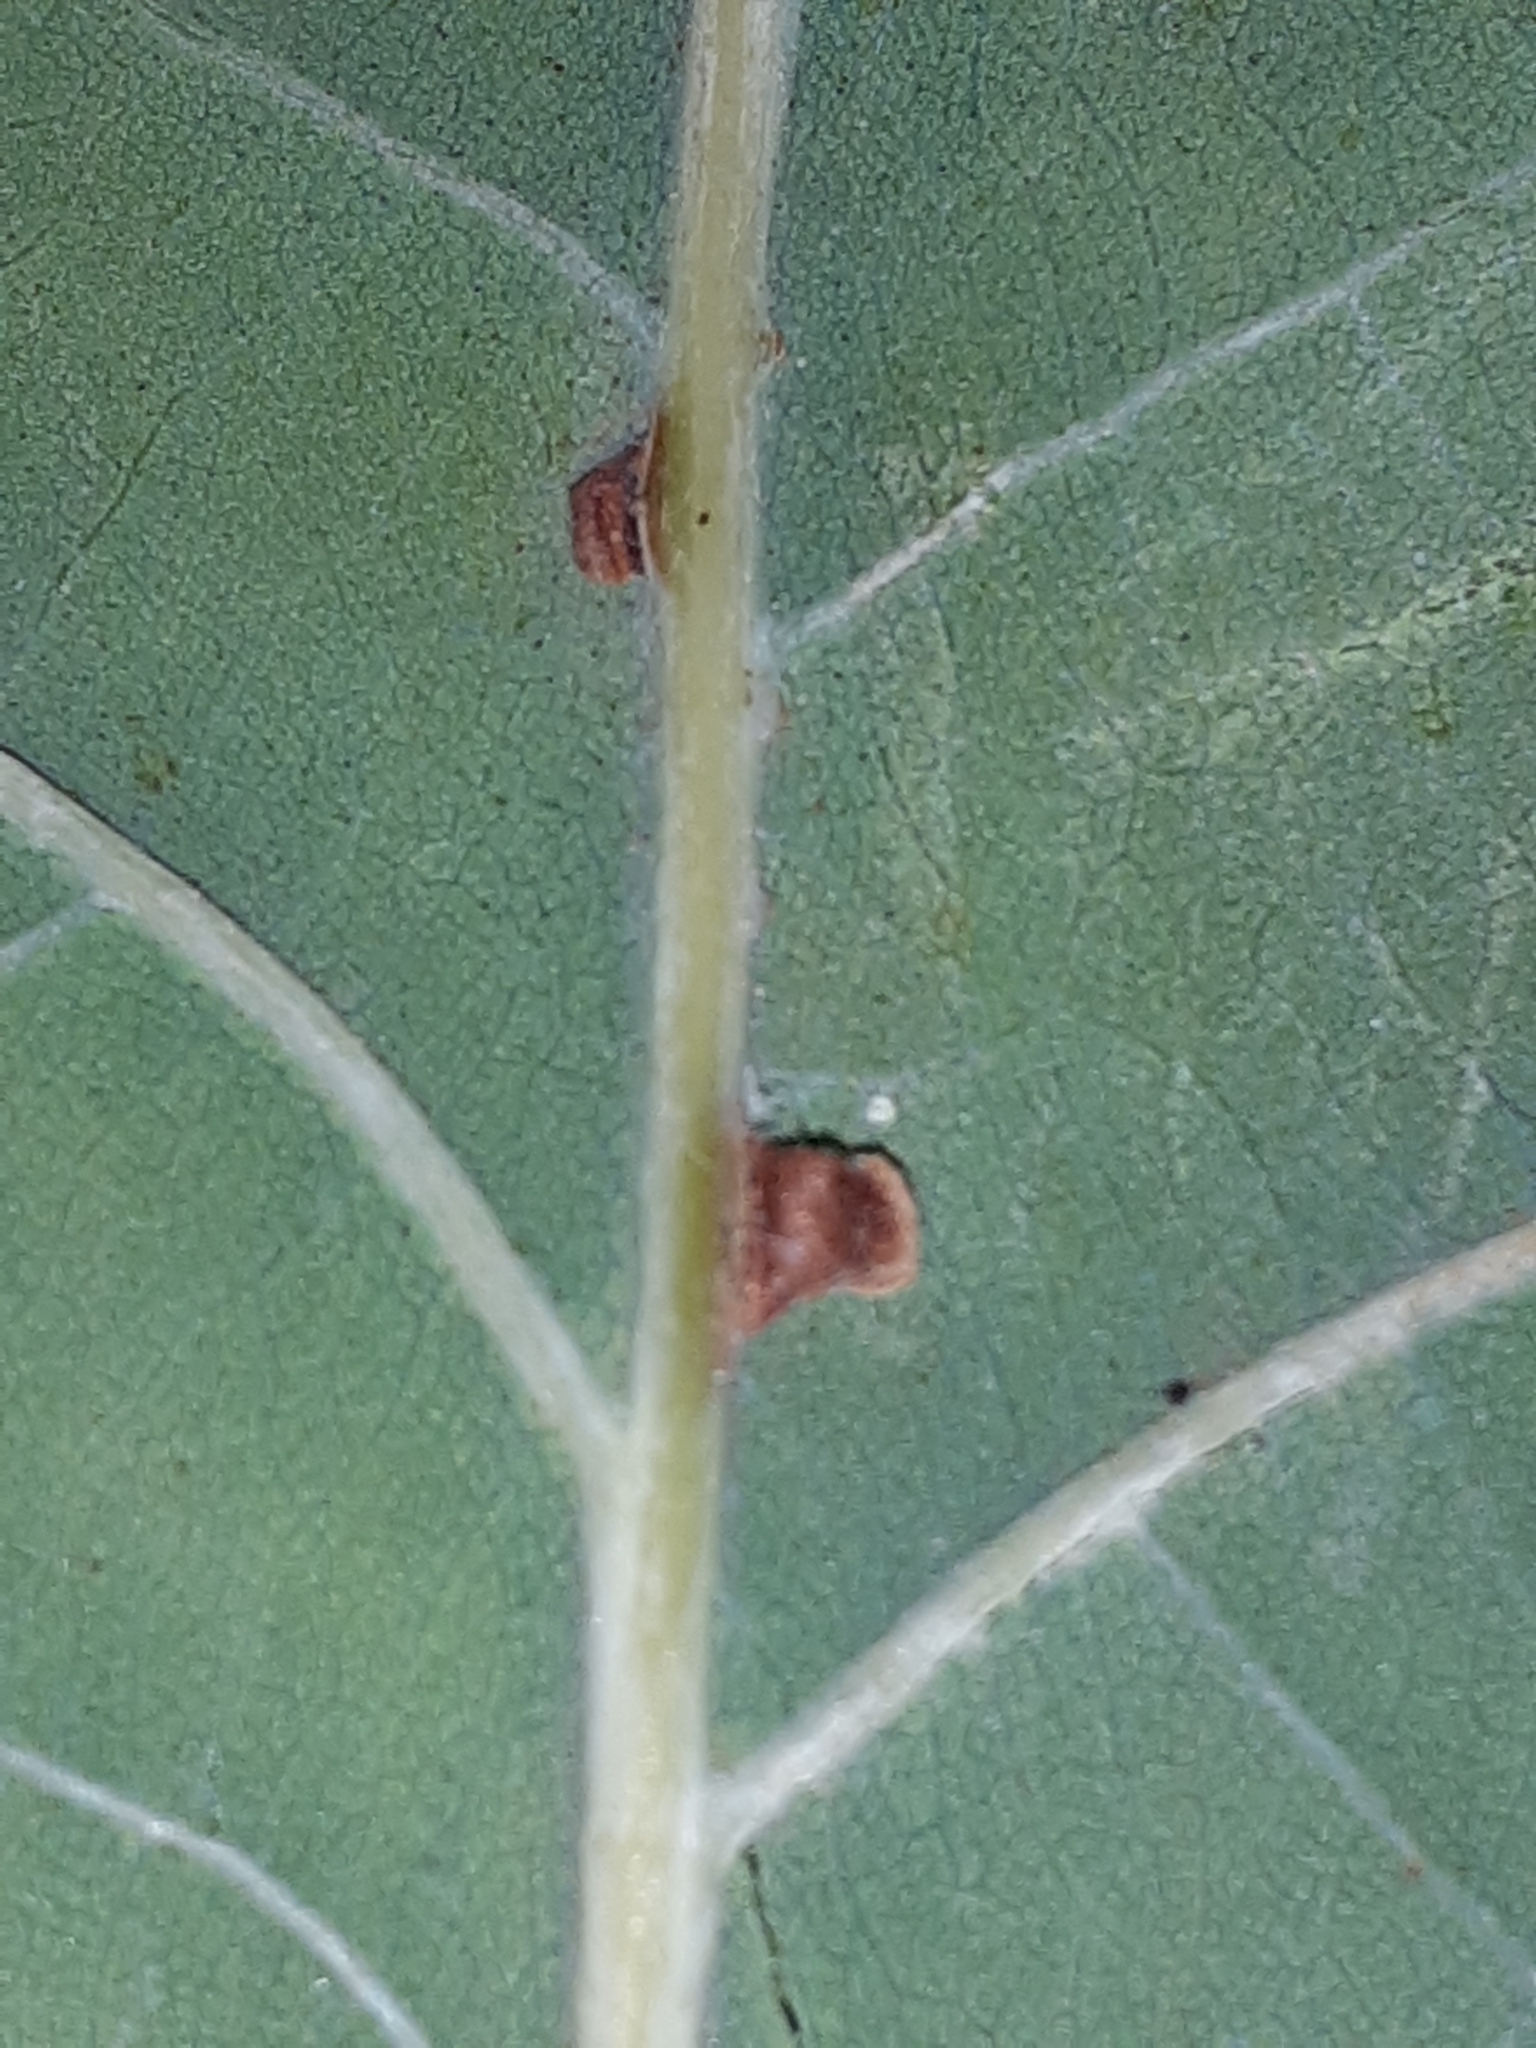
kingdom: Animalia
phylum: Arthropoda
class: Insecta
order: Hymenoptera
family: Cynipidae
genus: Neuroterus
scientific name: Neuroterus anthracinus
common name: Oyster gall
